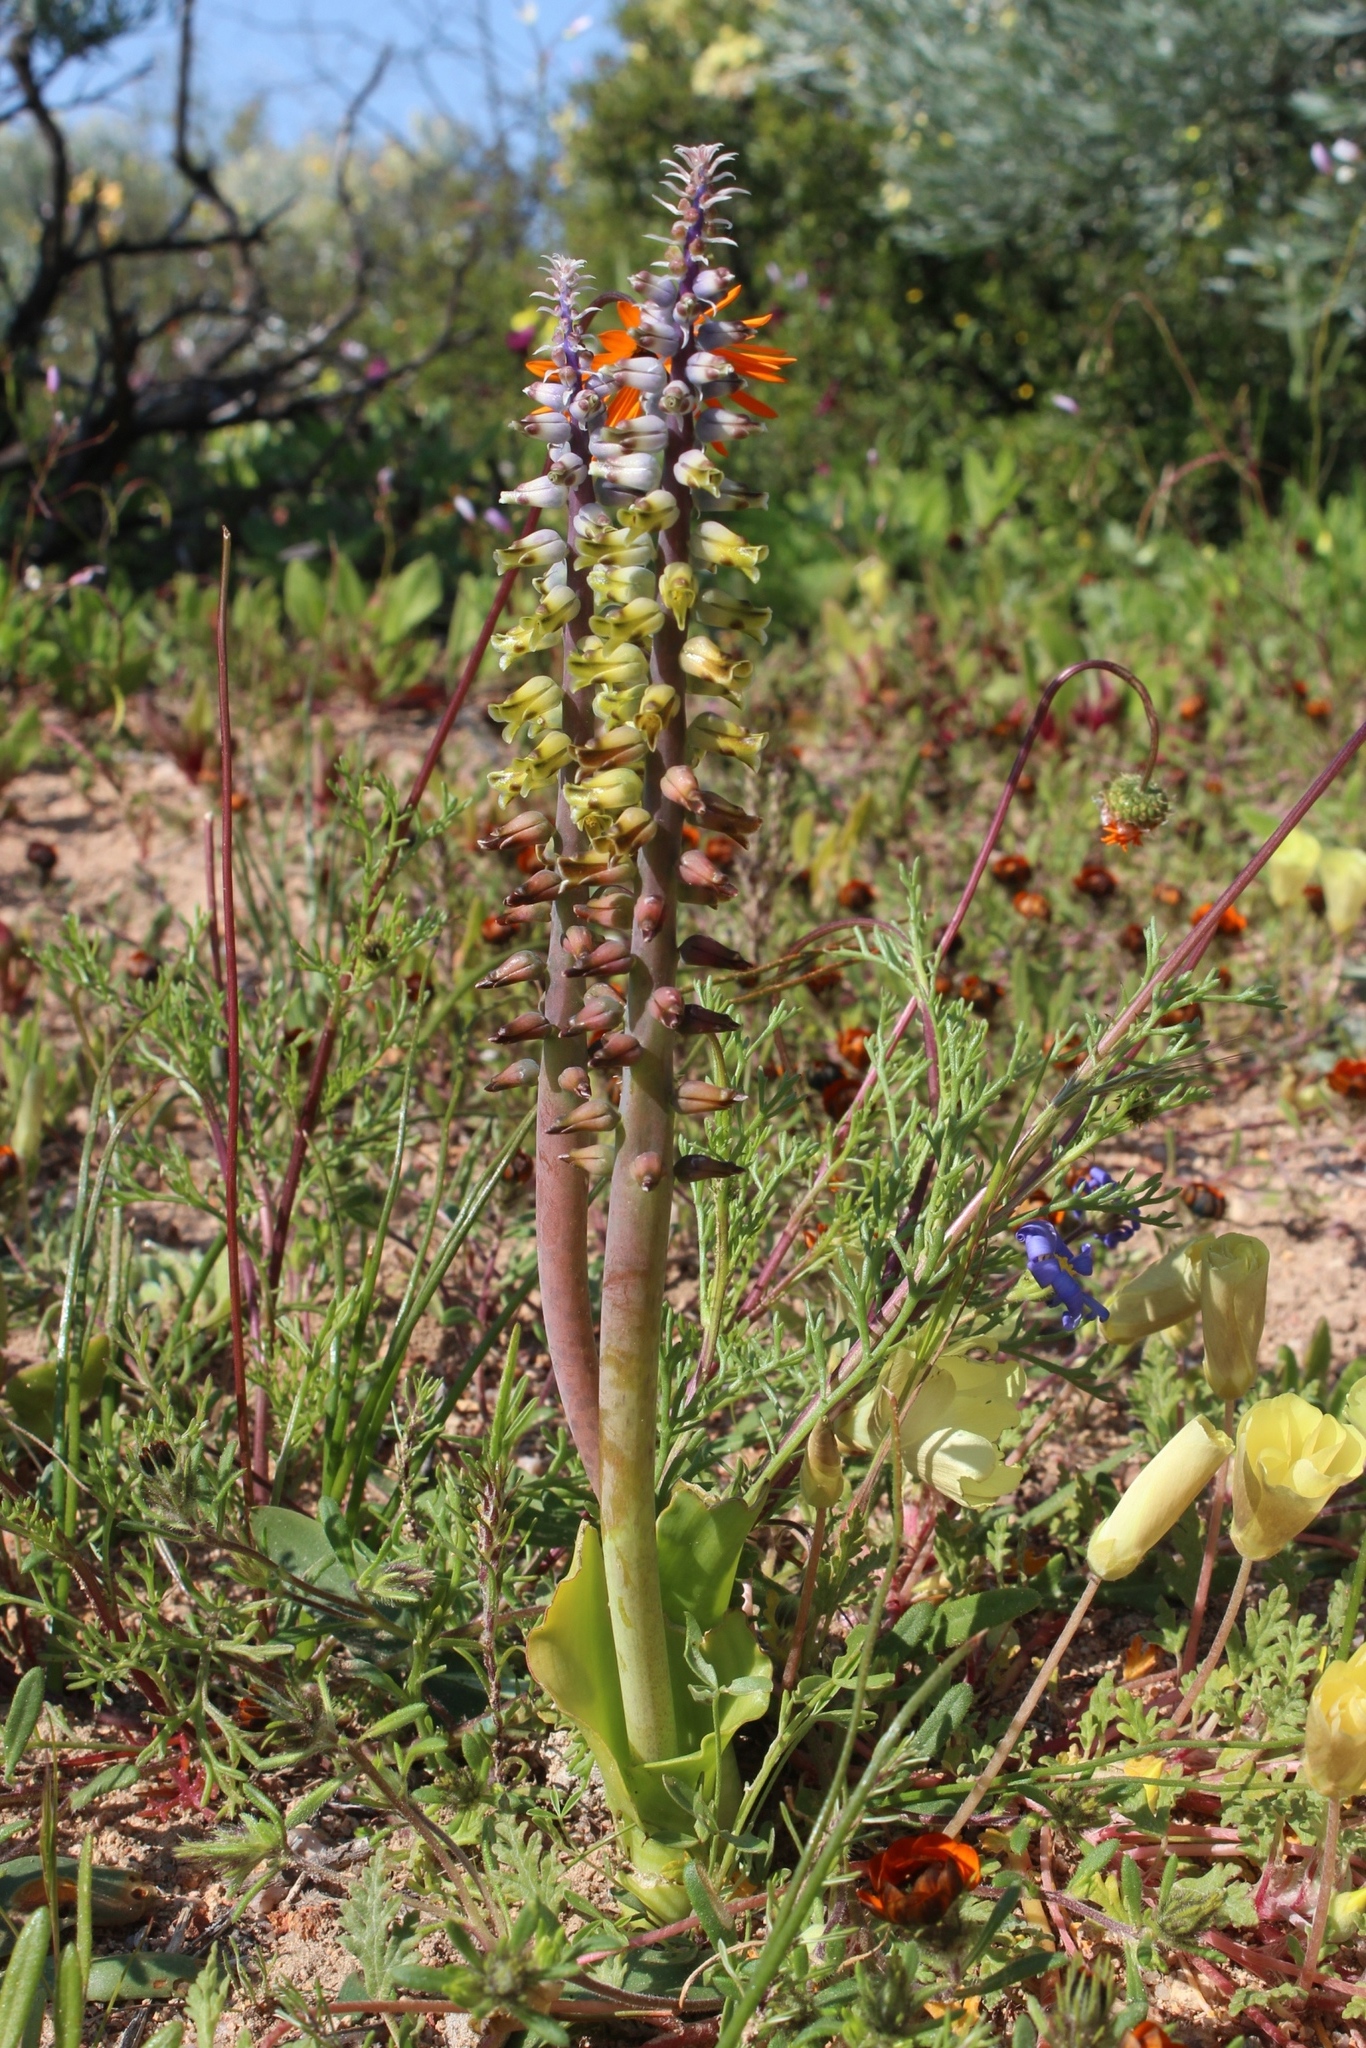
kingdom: Plantae
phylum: Tracheophyta
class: Liliopsida
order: Asparagales
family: Asparagaceae
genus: Lachenalia
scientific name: Lachenalia mutabilis
